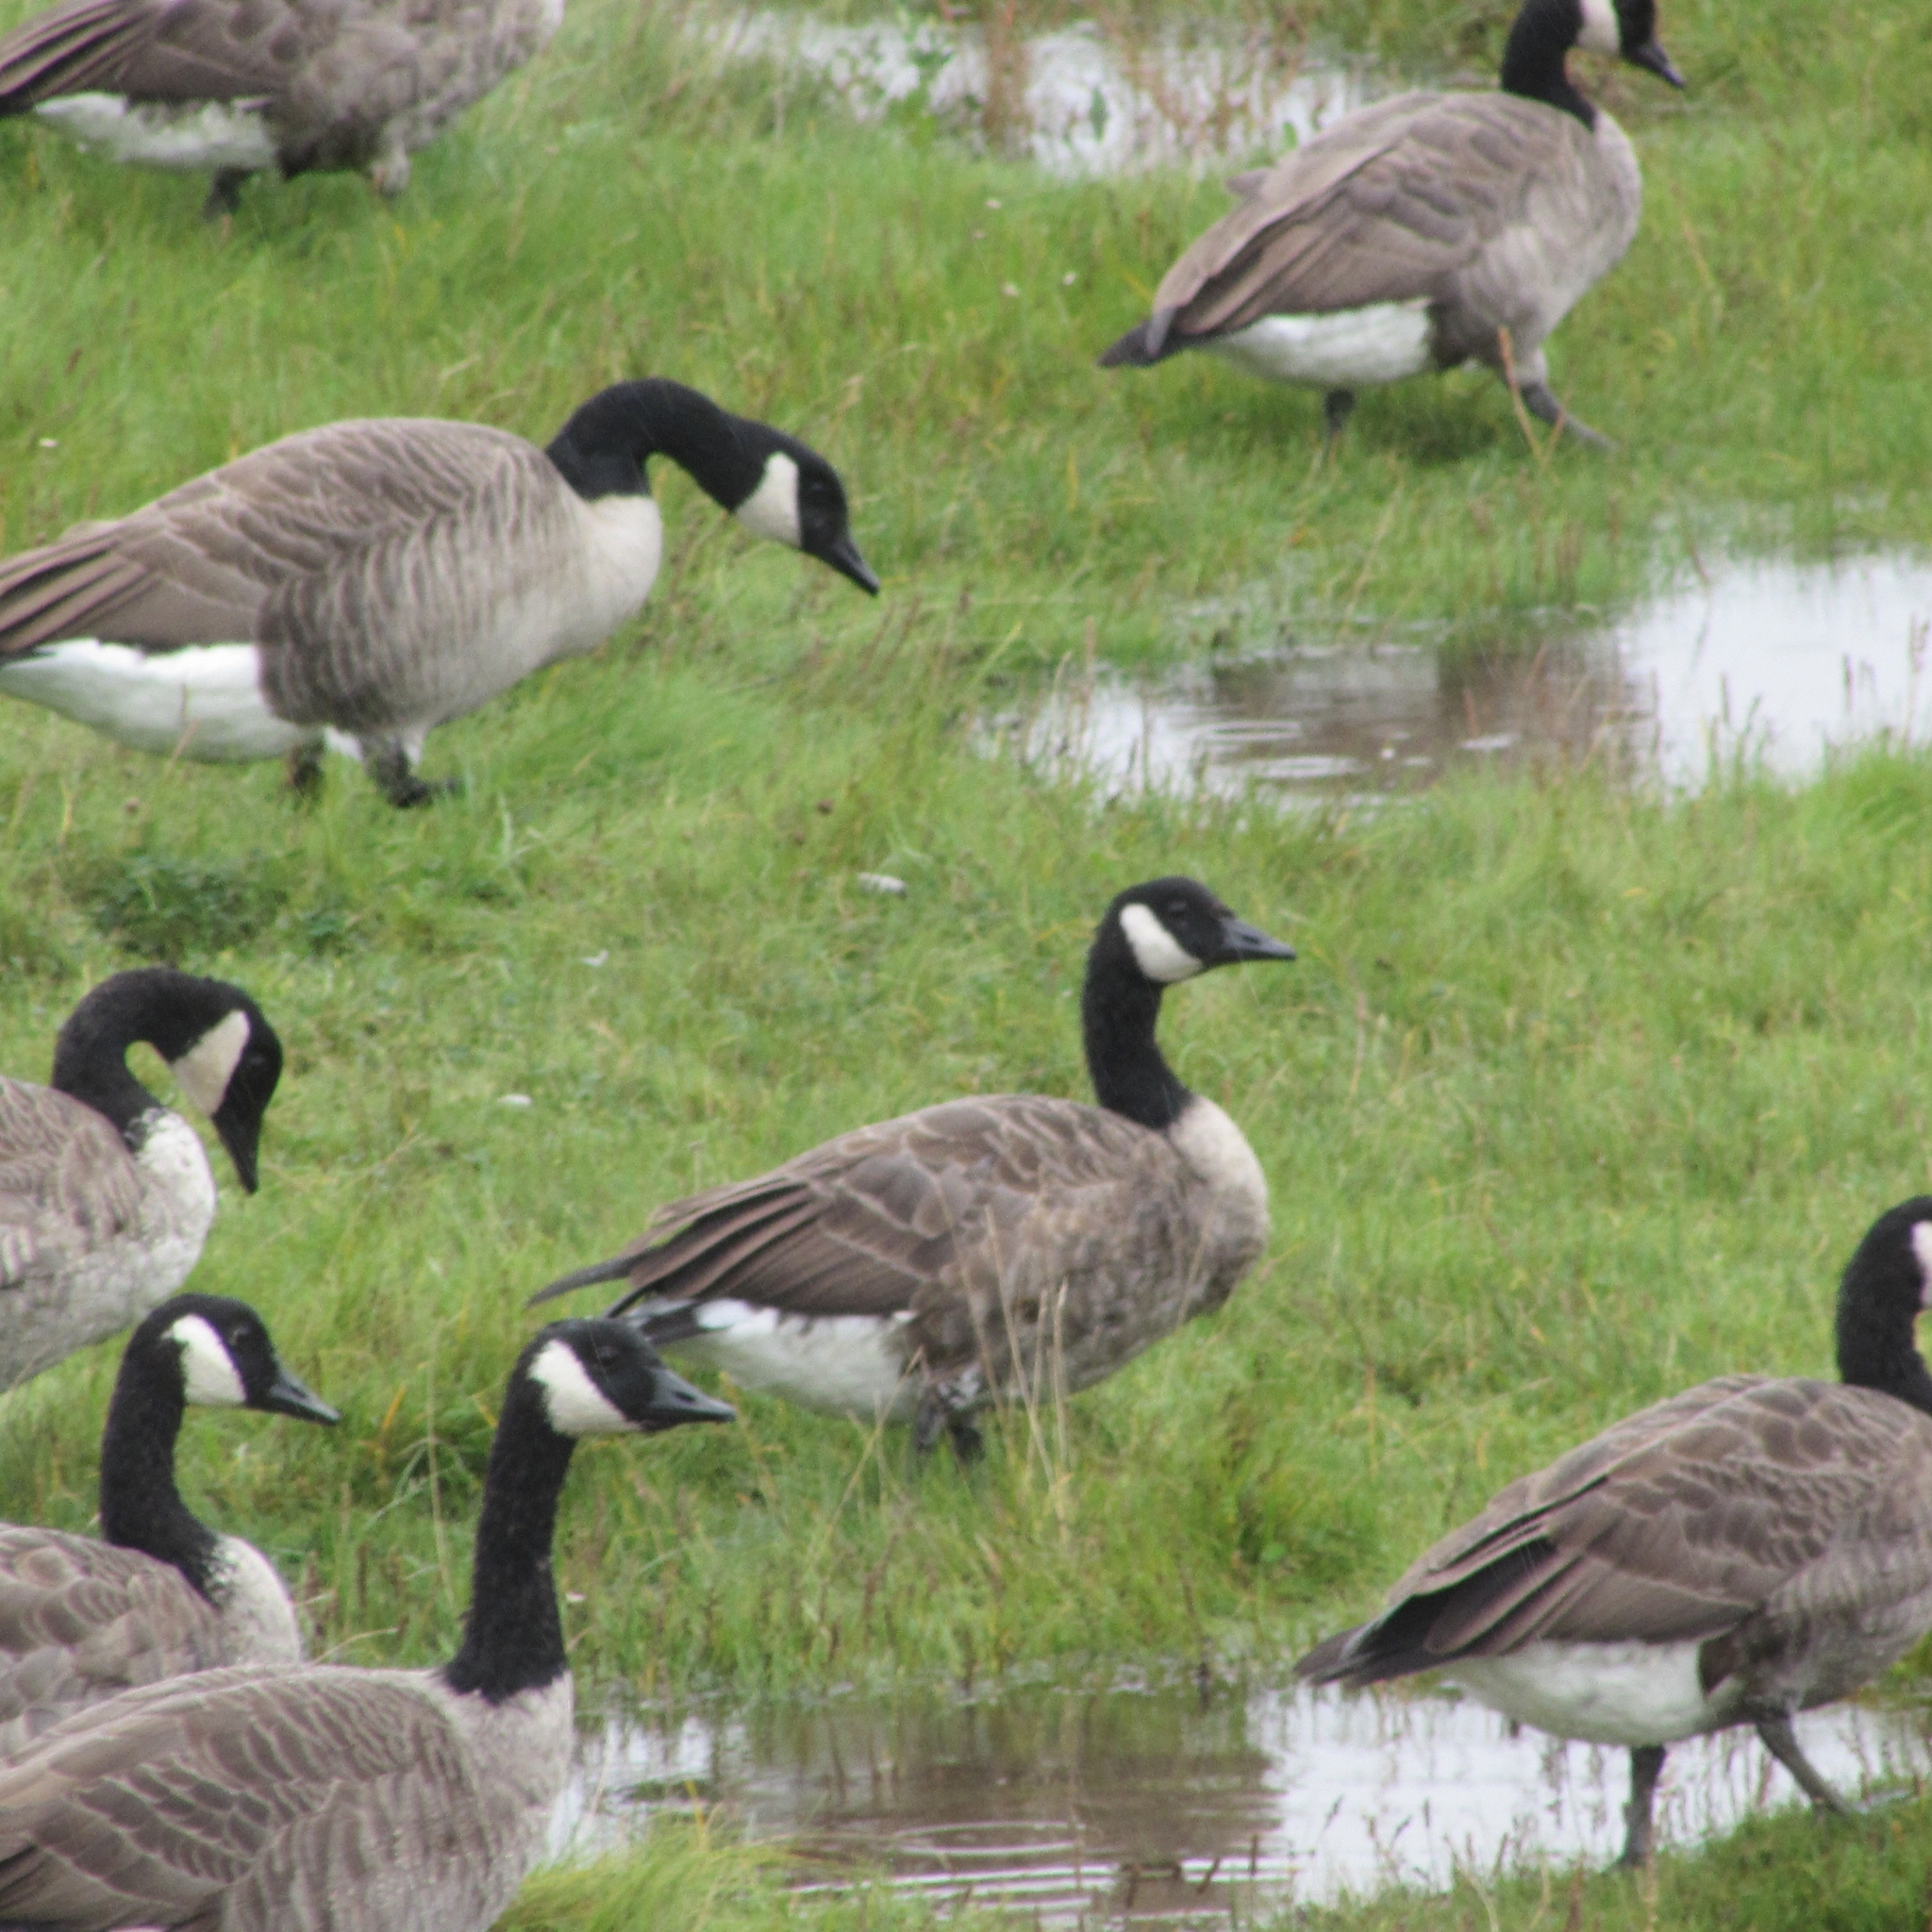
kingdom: Animalia
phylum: Chordata
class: Aves
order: Anseriformes
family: Anatidae
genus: Branta
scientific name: Branta canadensis
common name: Canada goose
